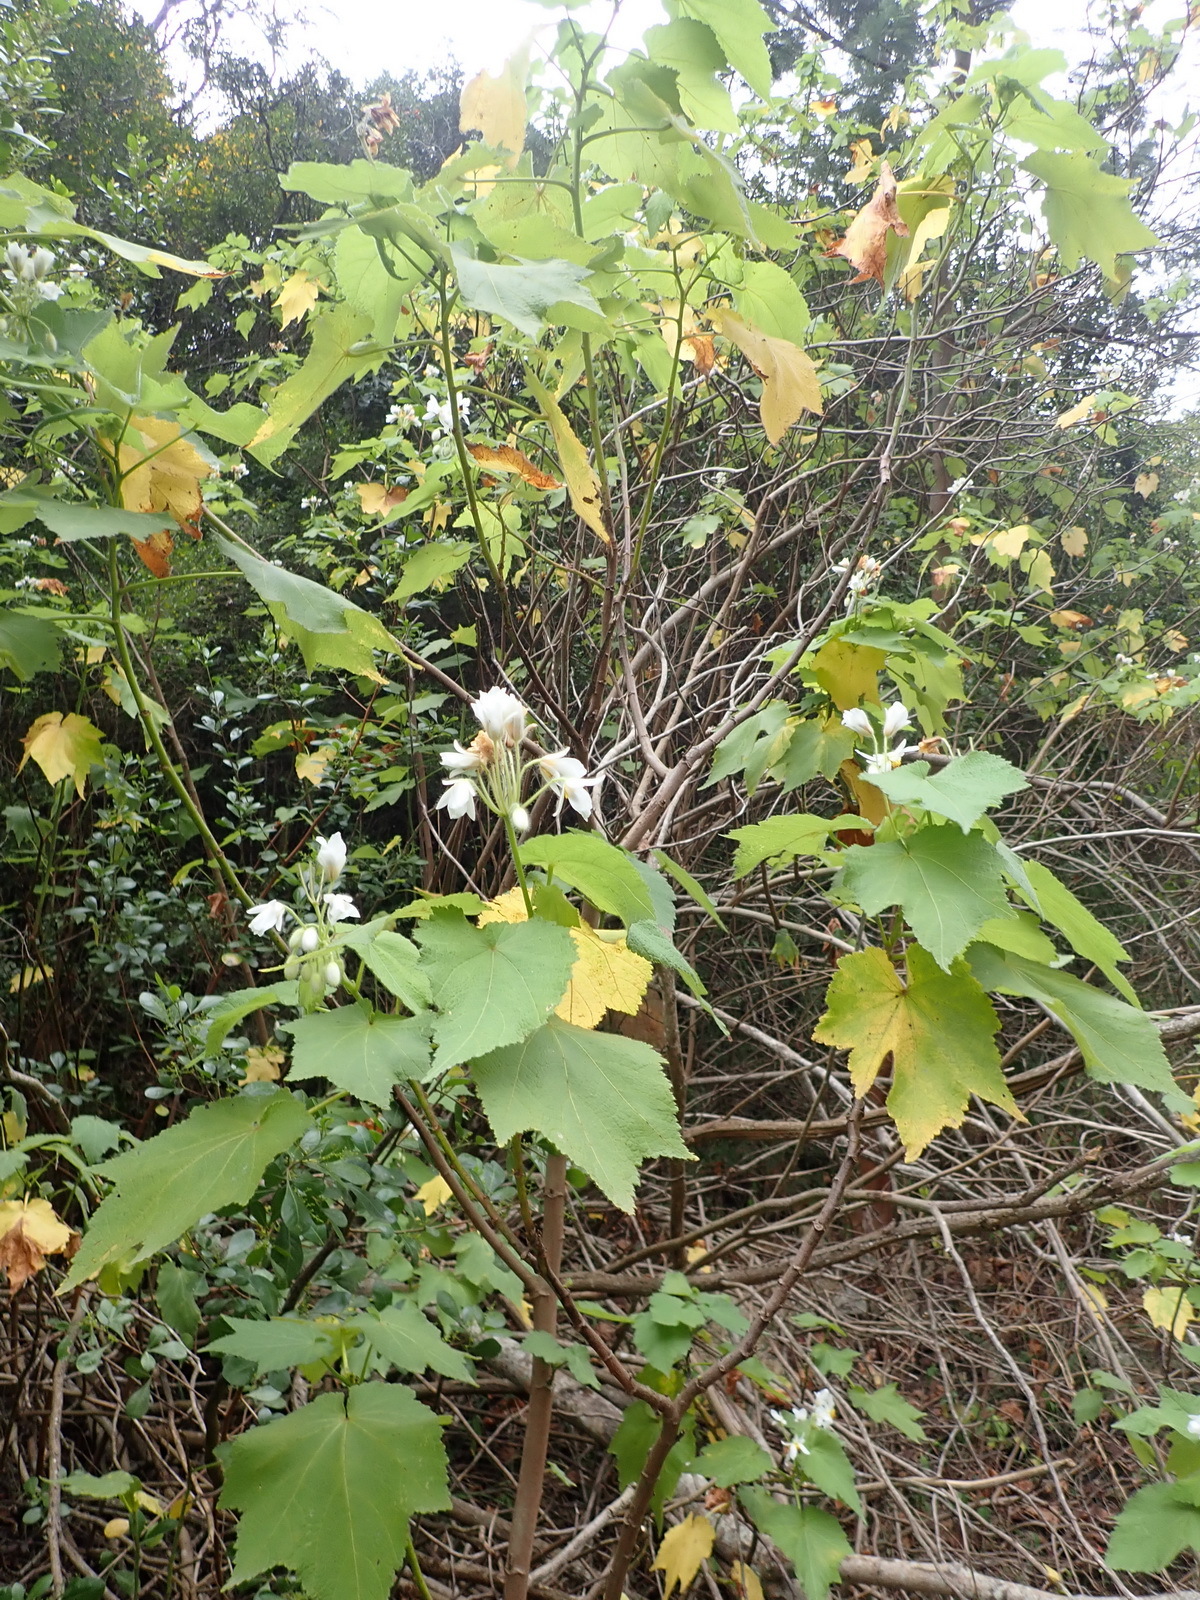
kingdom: Plantae
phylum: Tracheophyta
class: Magnoliopsida
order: Malvales
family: Malvaceae
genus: Sparrmannia
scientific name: Sparrmannia africana
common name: African-hemp
